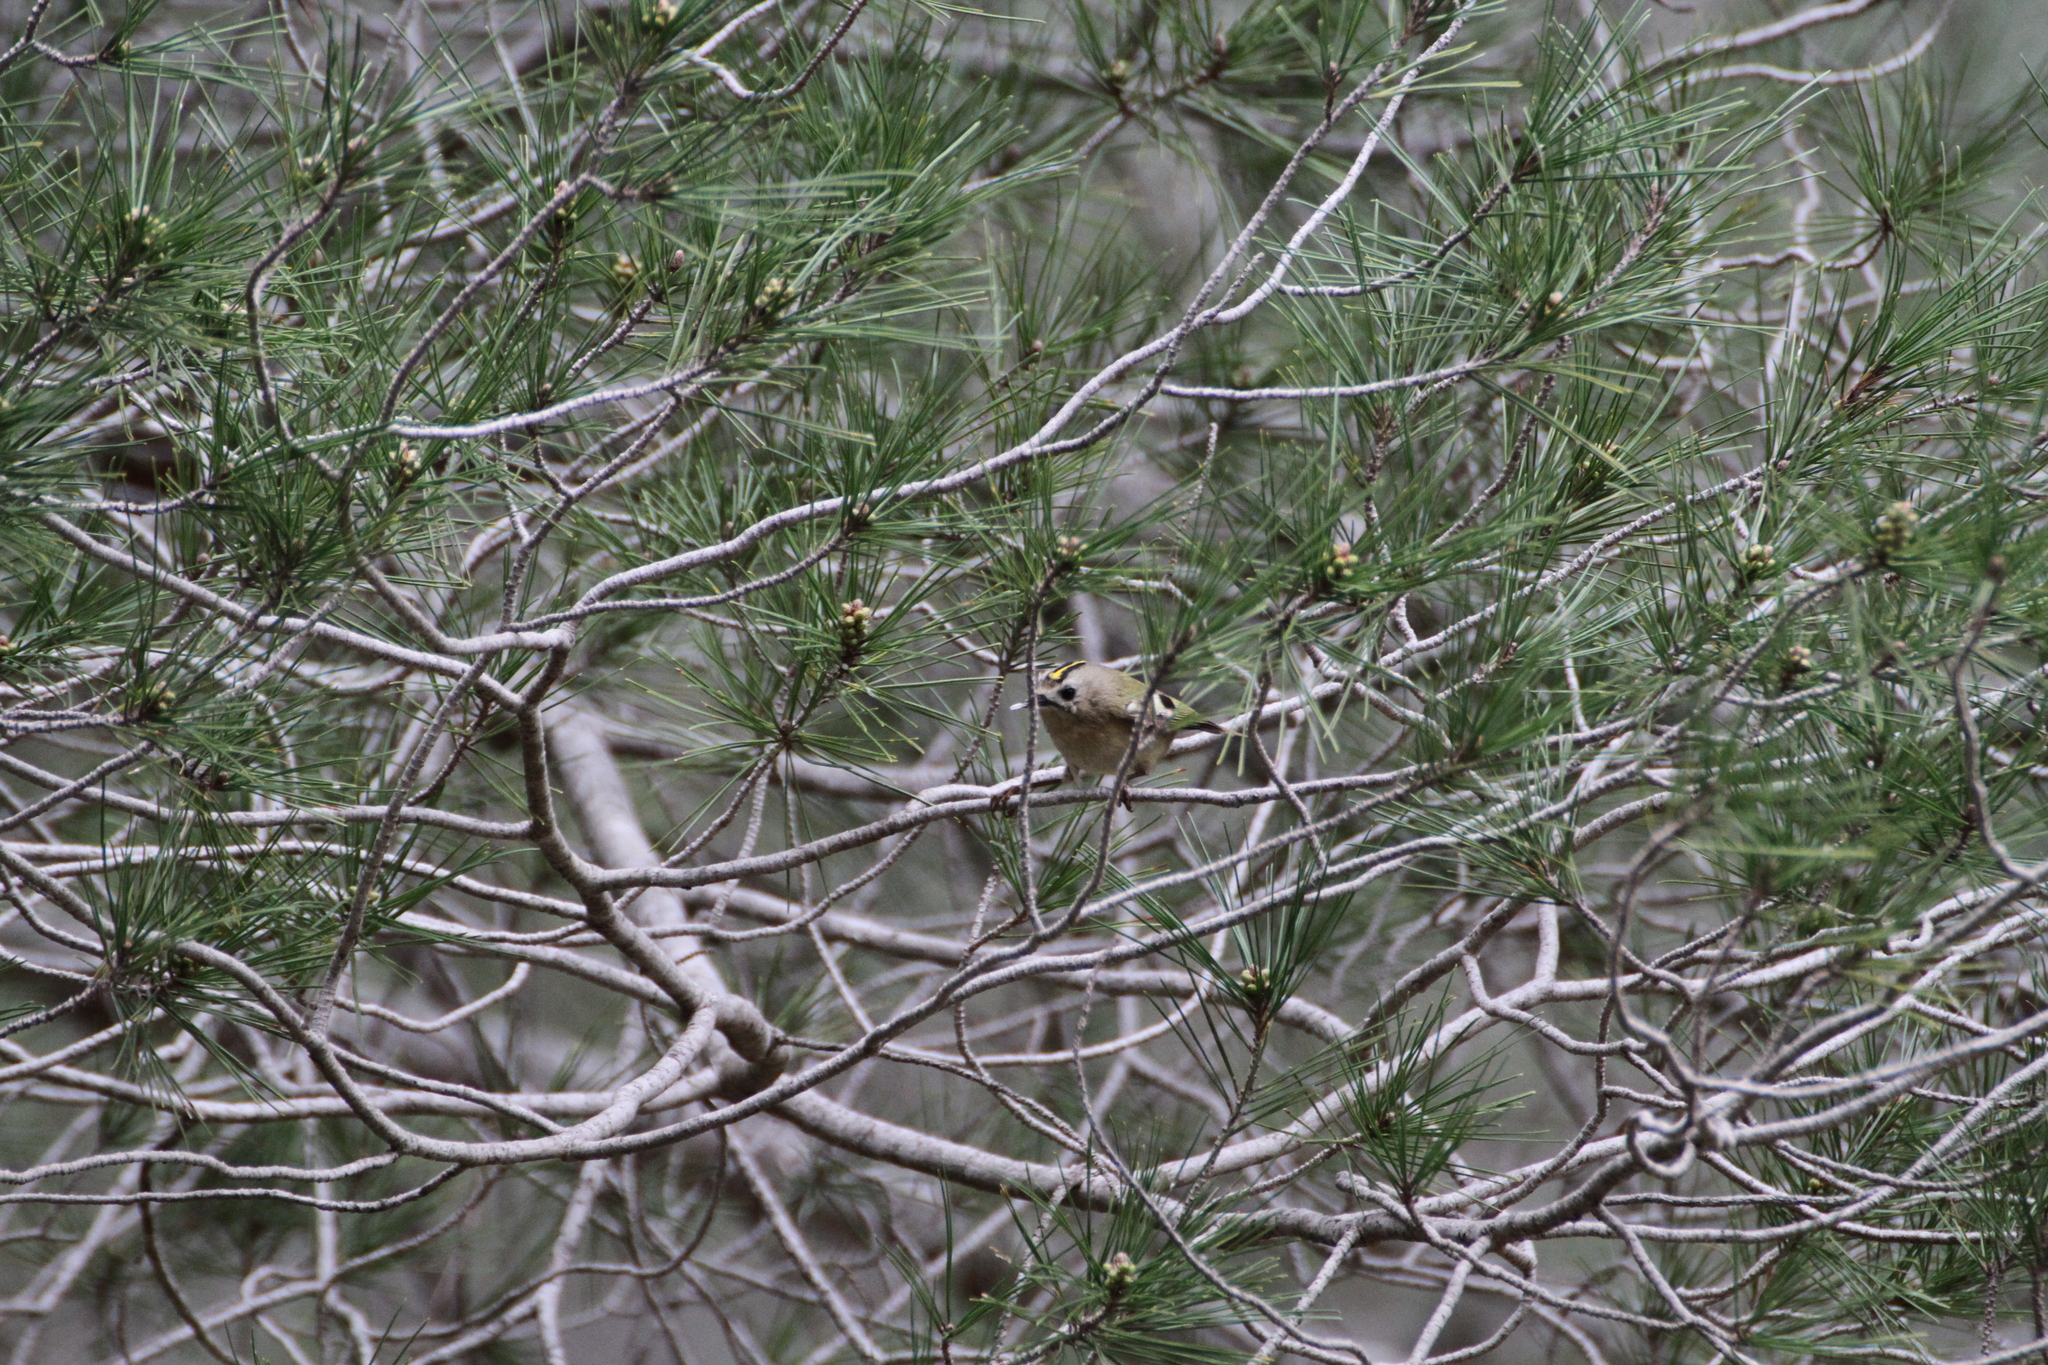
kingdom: Animalia
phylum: Chordata
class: Aves
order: Passeriformes
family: Regulidae
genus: Regulus
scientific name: Regulus regulus
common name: Goldcrest
